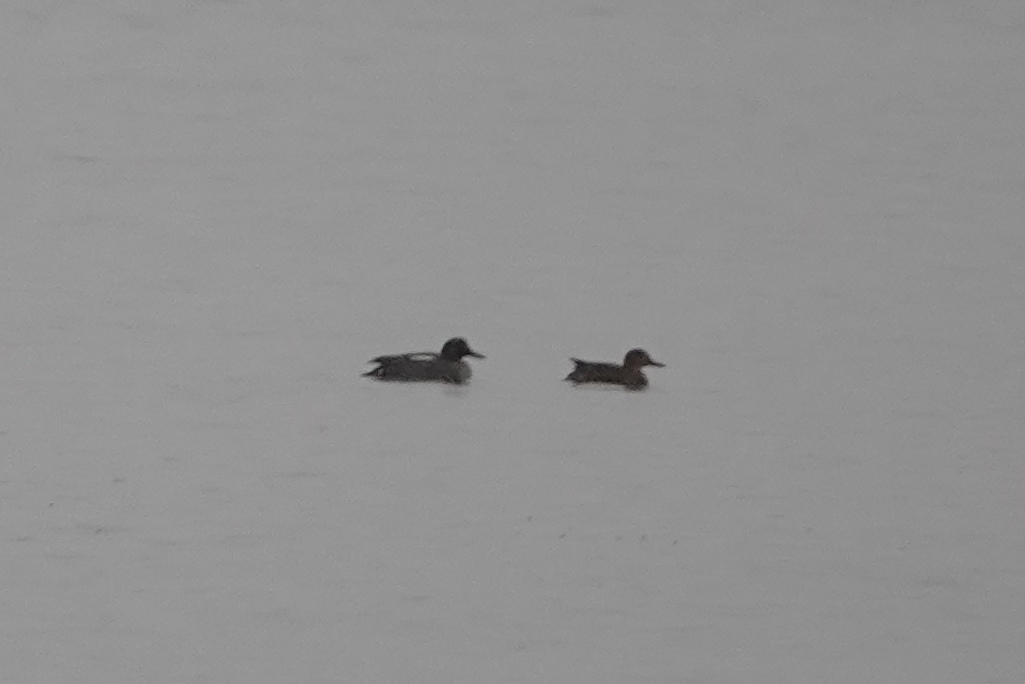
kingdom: Animalia
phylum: Chordata
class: Aves
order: Anseriformes
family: Anatidae
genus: Anas
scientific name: Anas crecca
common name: Eurasian teal
